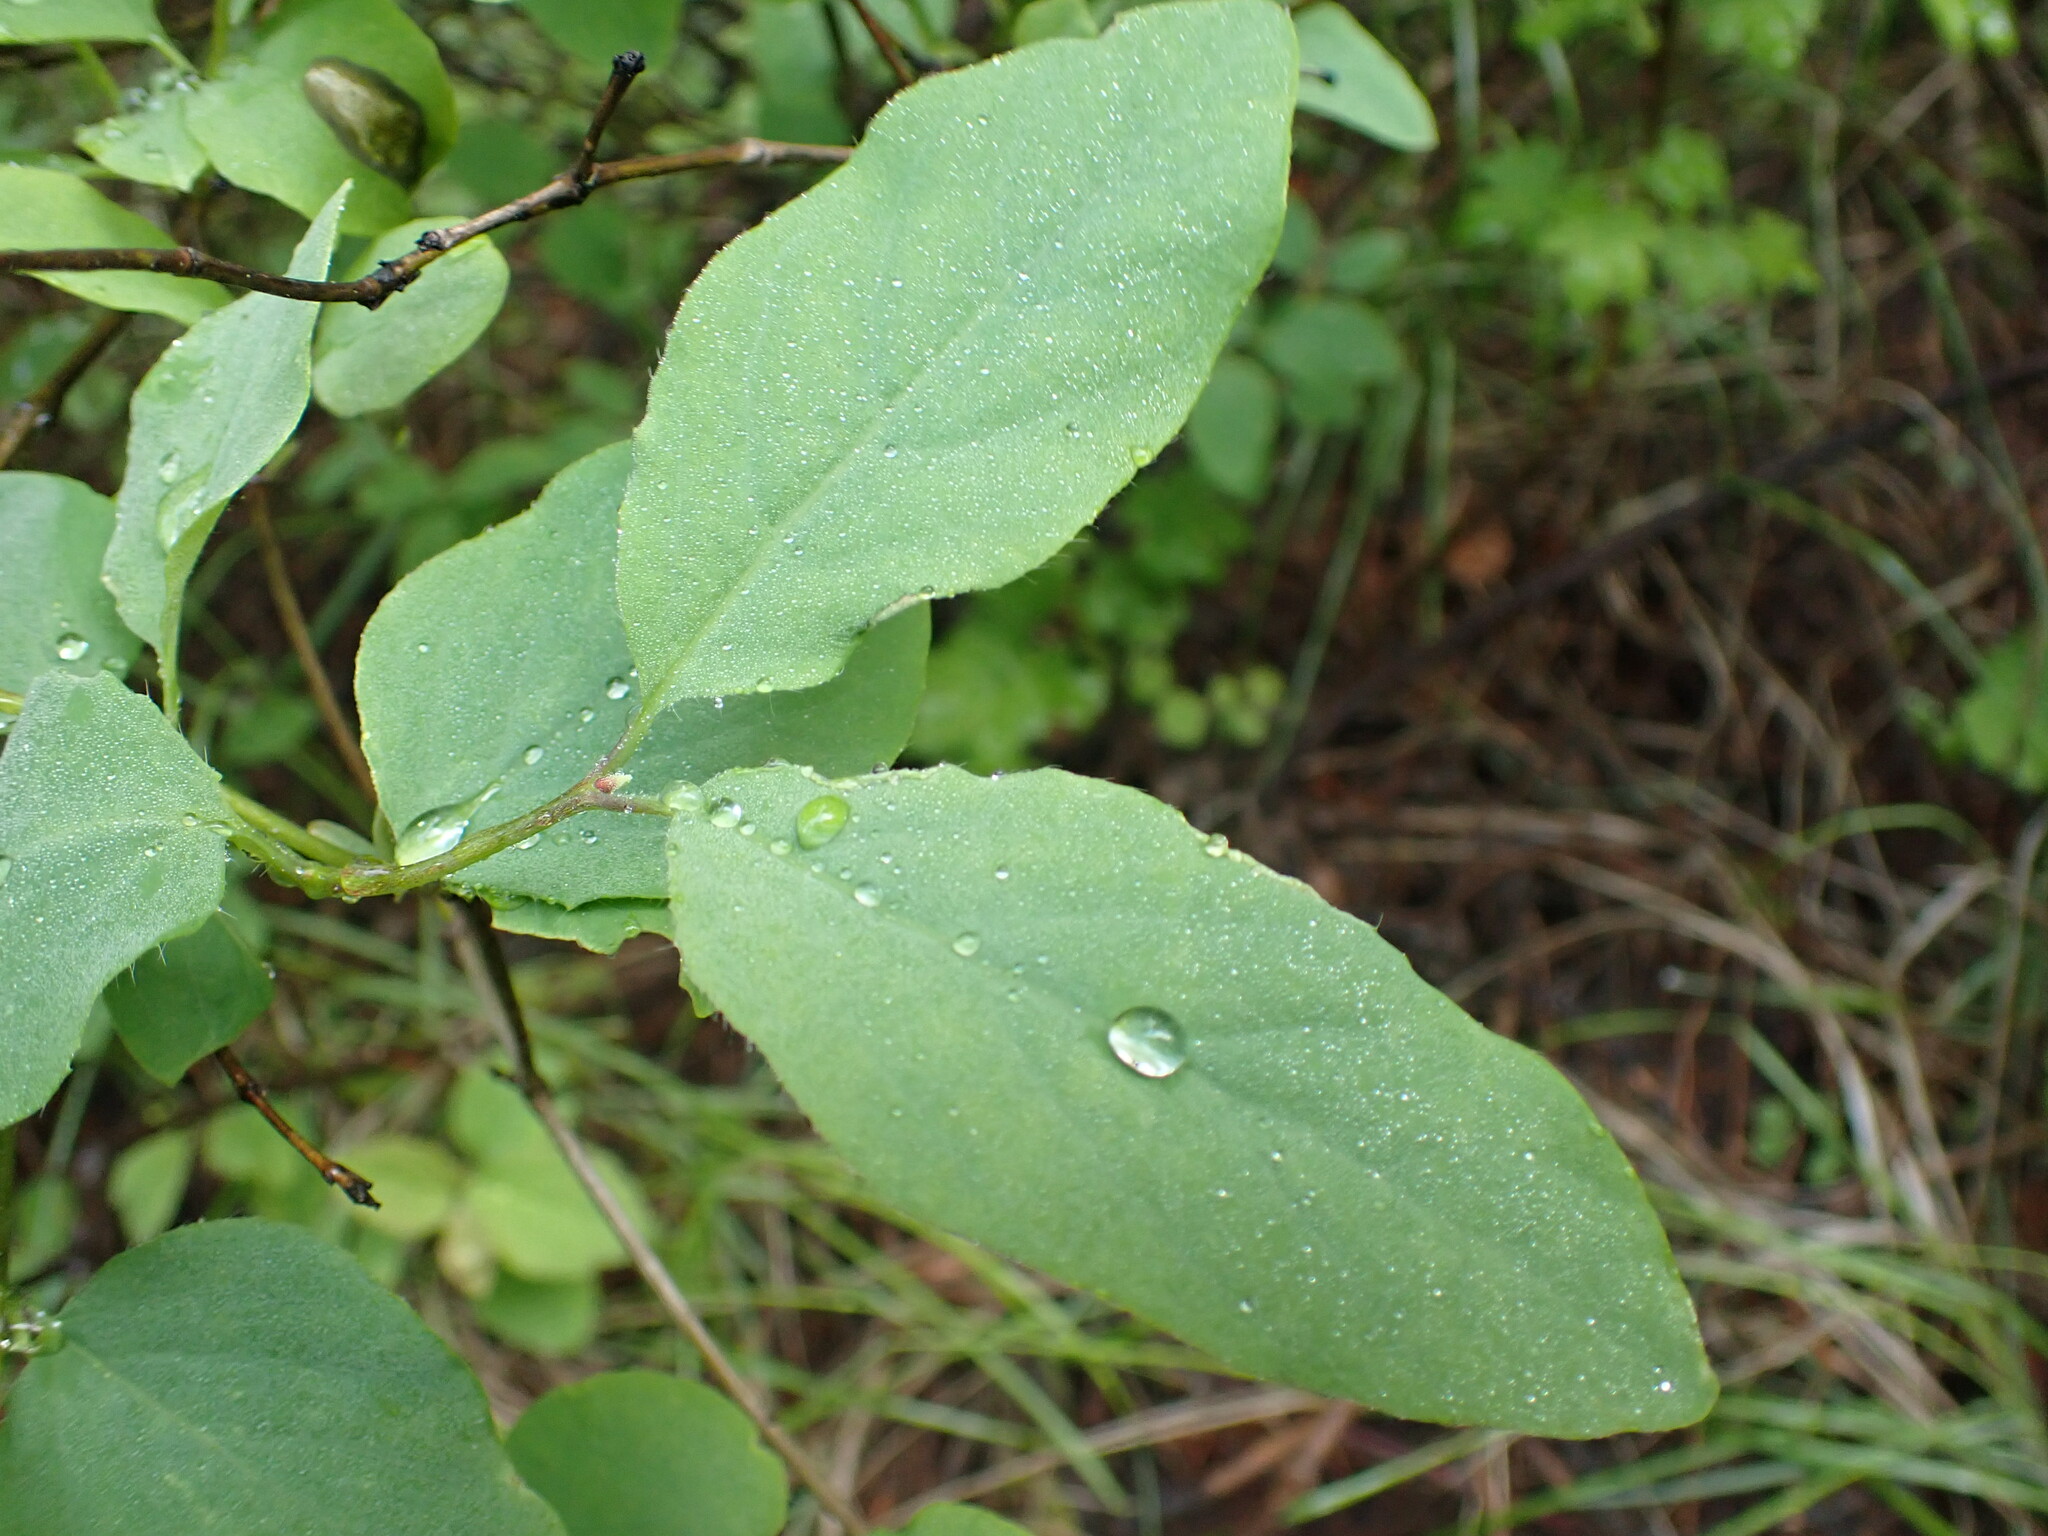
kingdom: Plantae
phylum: Tracheophyta
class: Magnoliopsida
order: Dipsacales
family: Caprifoliaceae
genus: Lonicera
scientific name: Lonicera utahensis
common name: Utah honeysuckle
